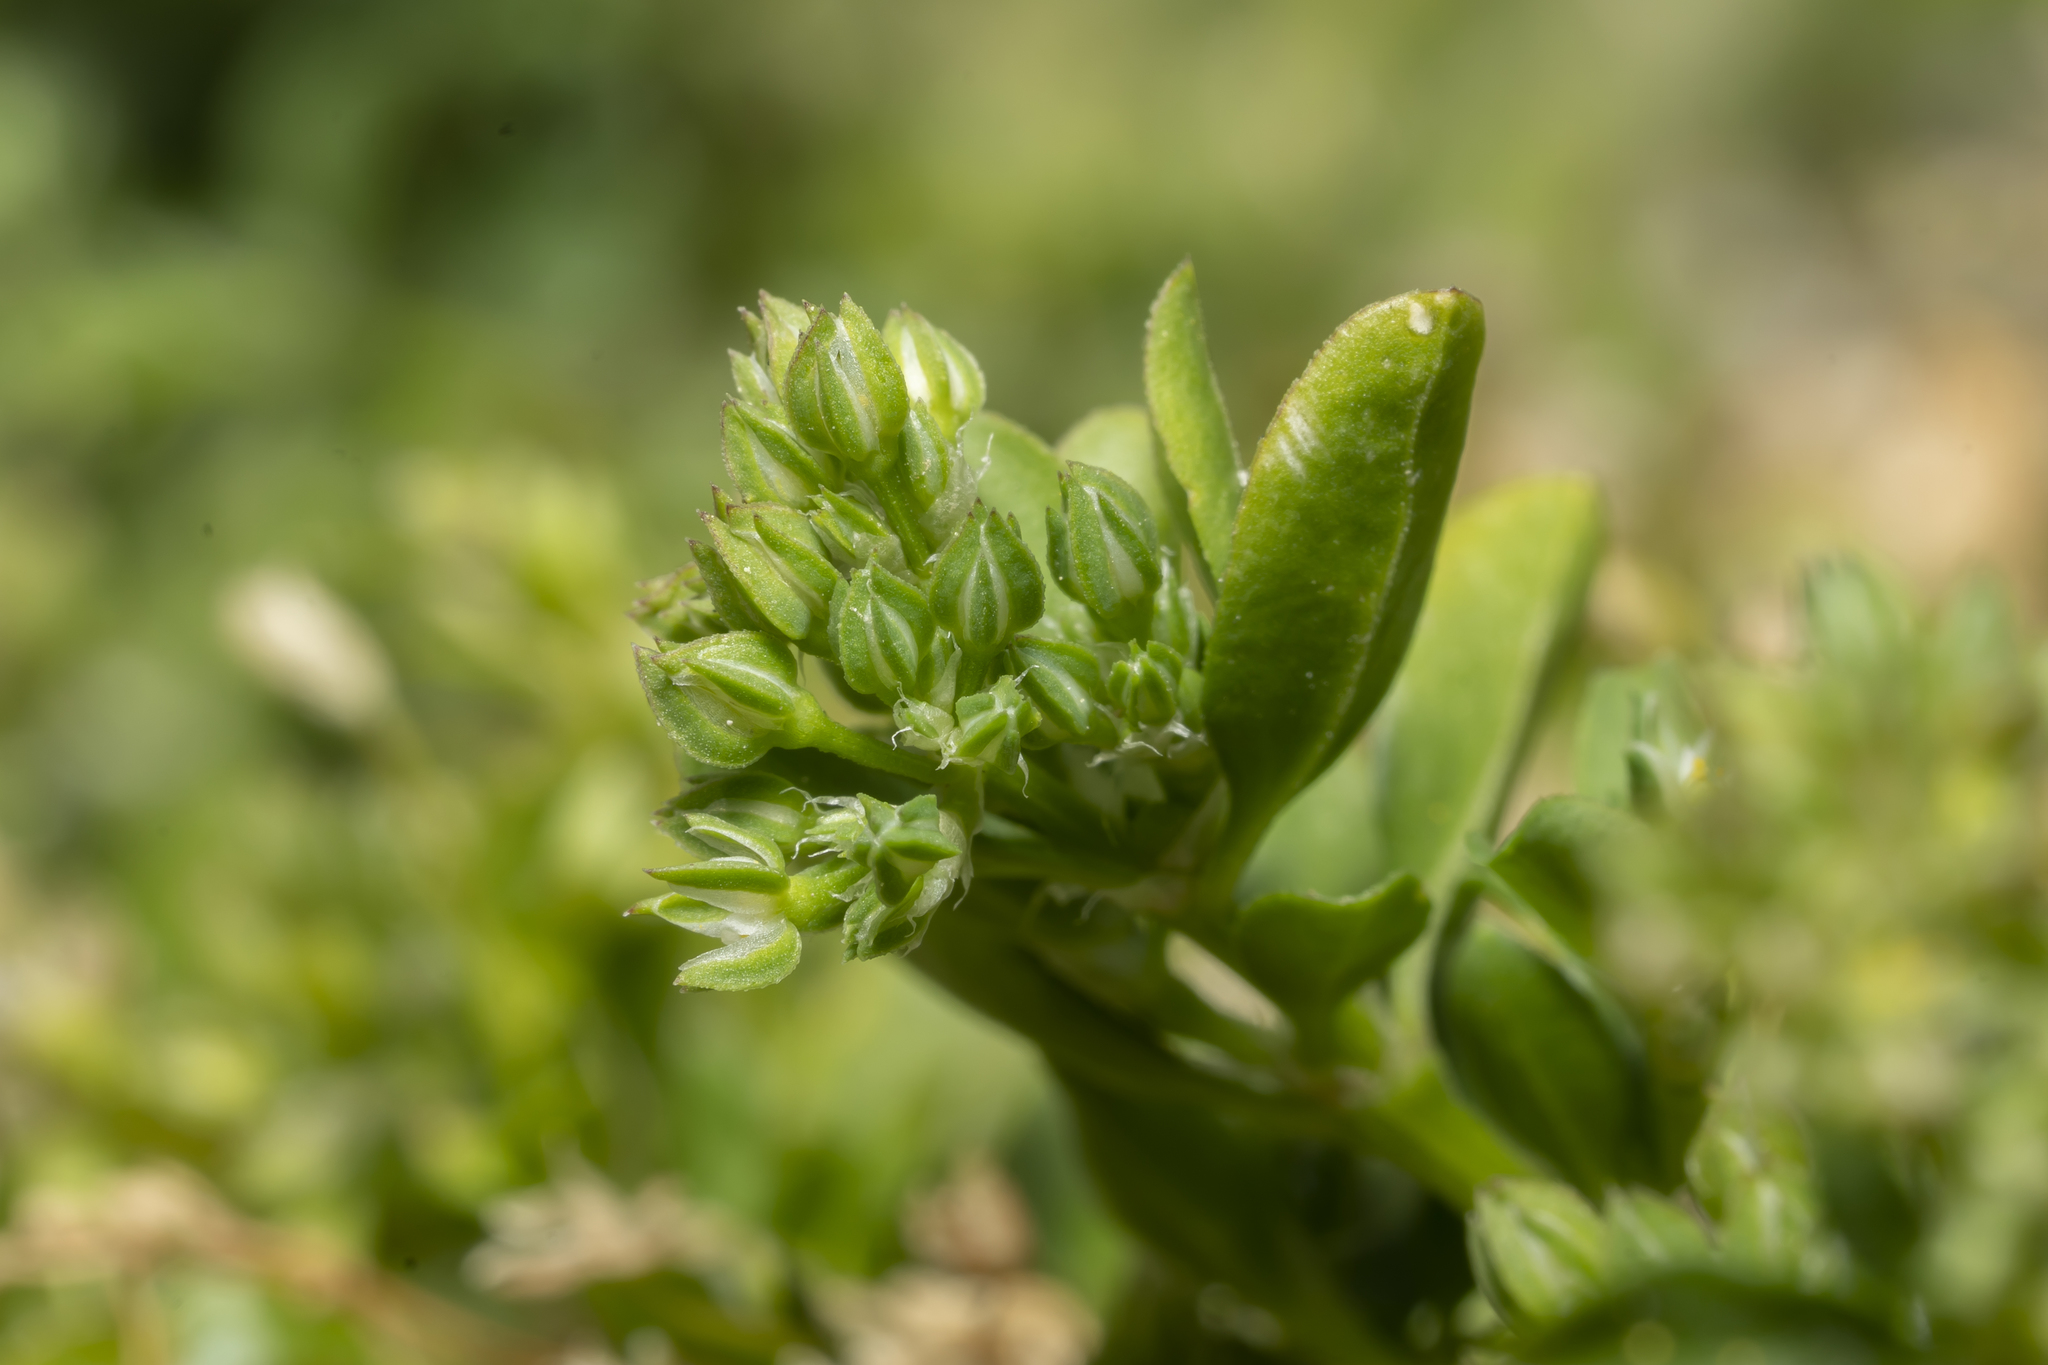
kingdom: Plantae
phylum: Tracheophyta
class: Magnoliopsida
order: Caryophyllales
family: Caryophyllaceae
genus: Polycarpon
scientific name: Polycarpon tetraphyllum
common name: Four-leaved all-seed
